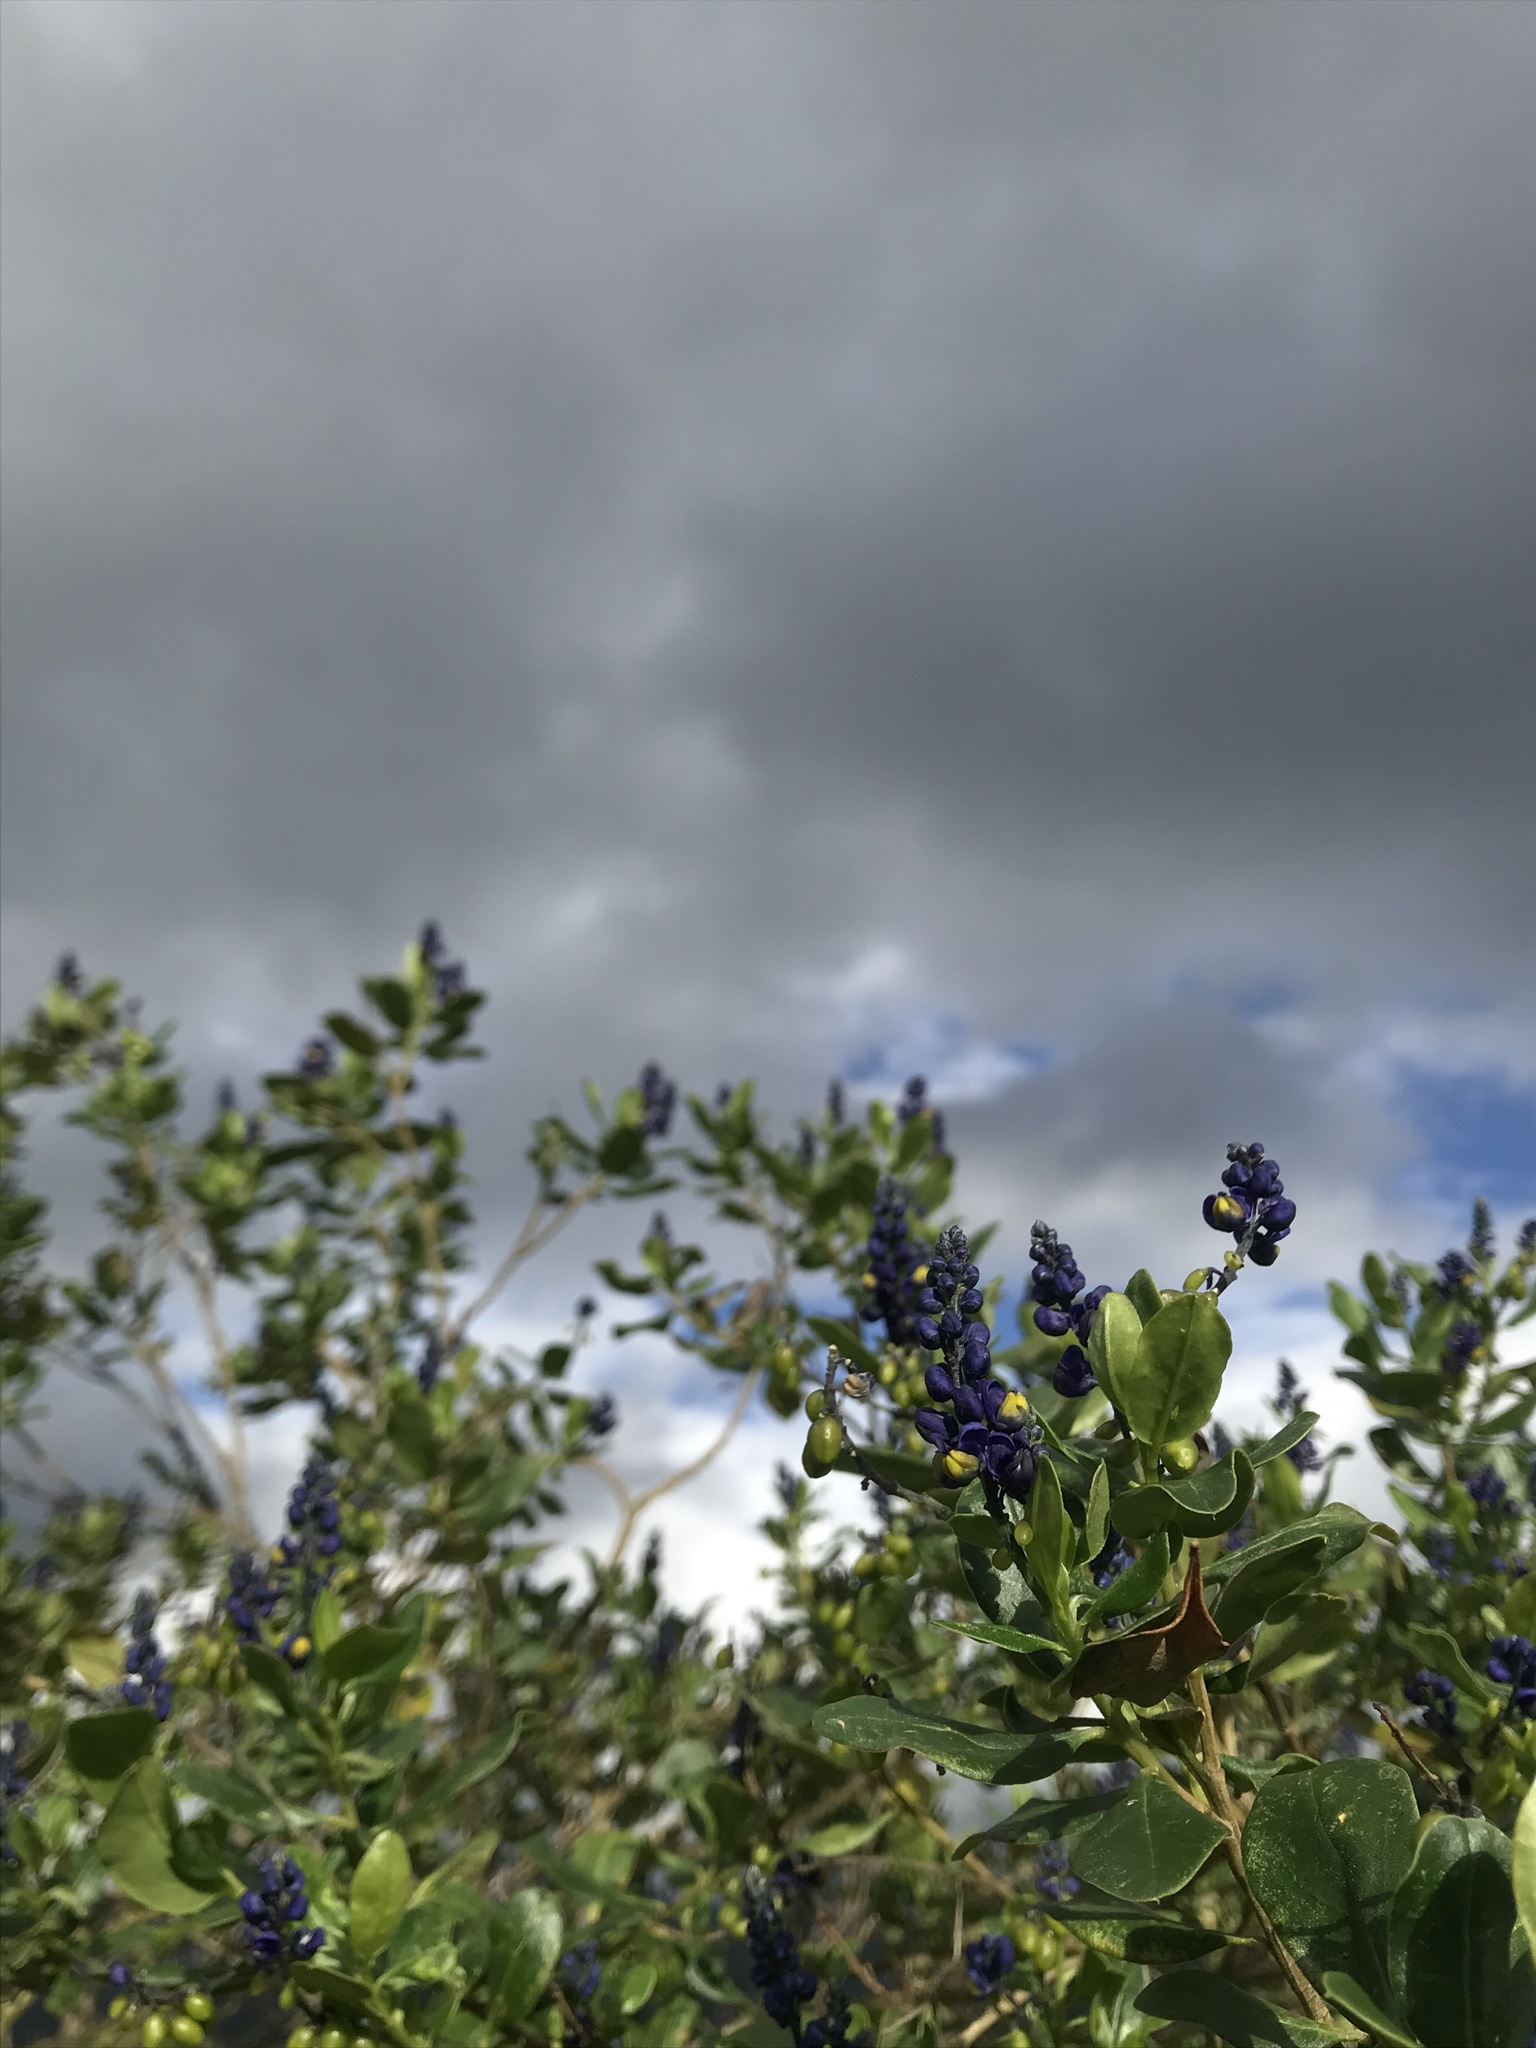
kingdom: Plantae
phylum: Tracheophyta
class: Magnoliopsida
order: Fabales
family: Polygalaceae
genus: Monnina
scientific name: Monnina aestuans
